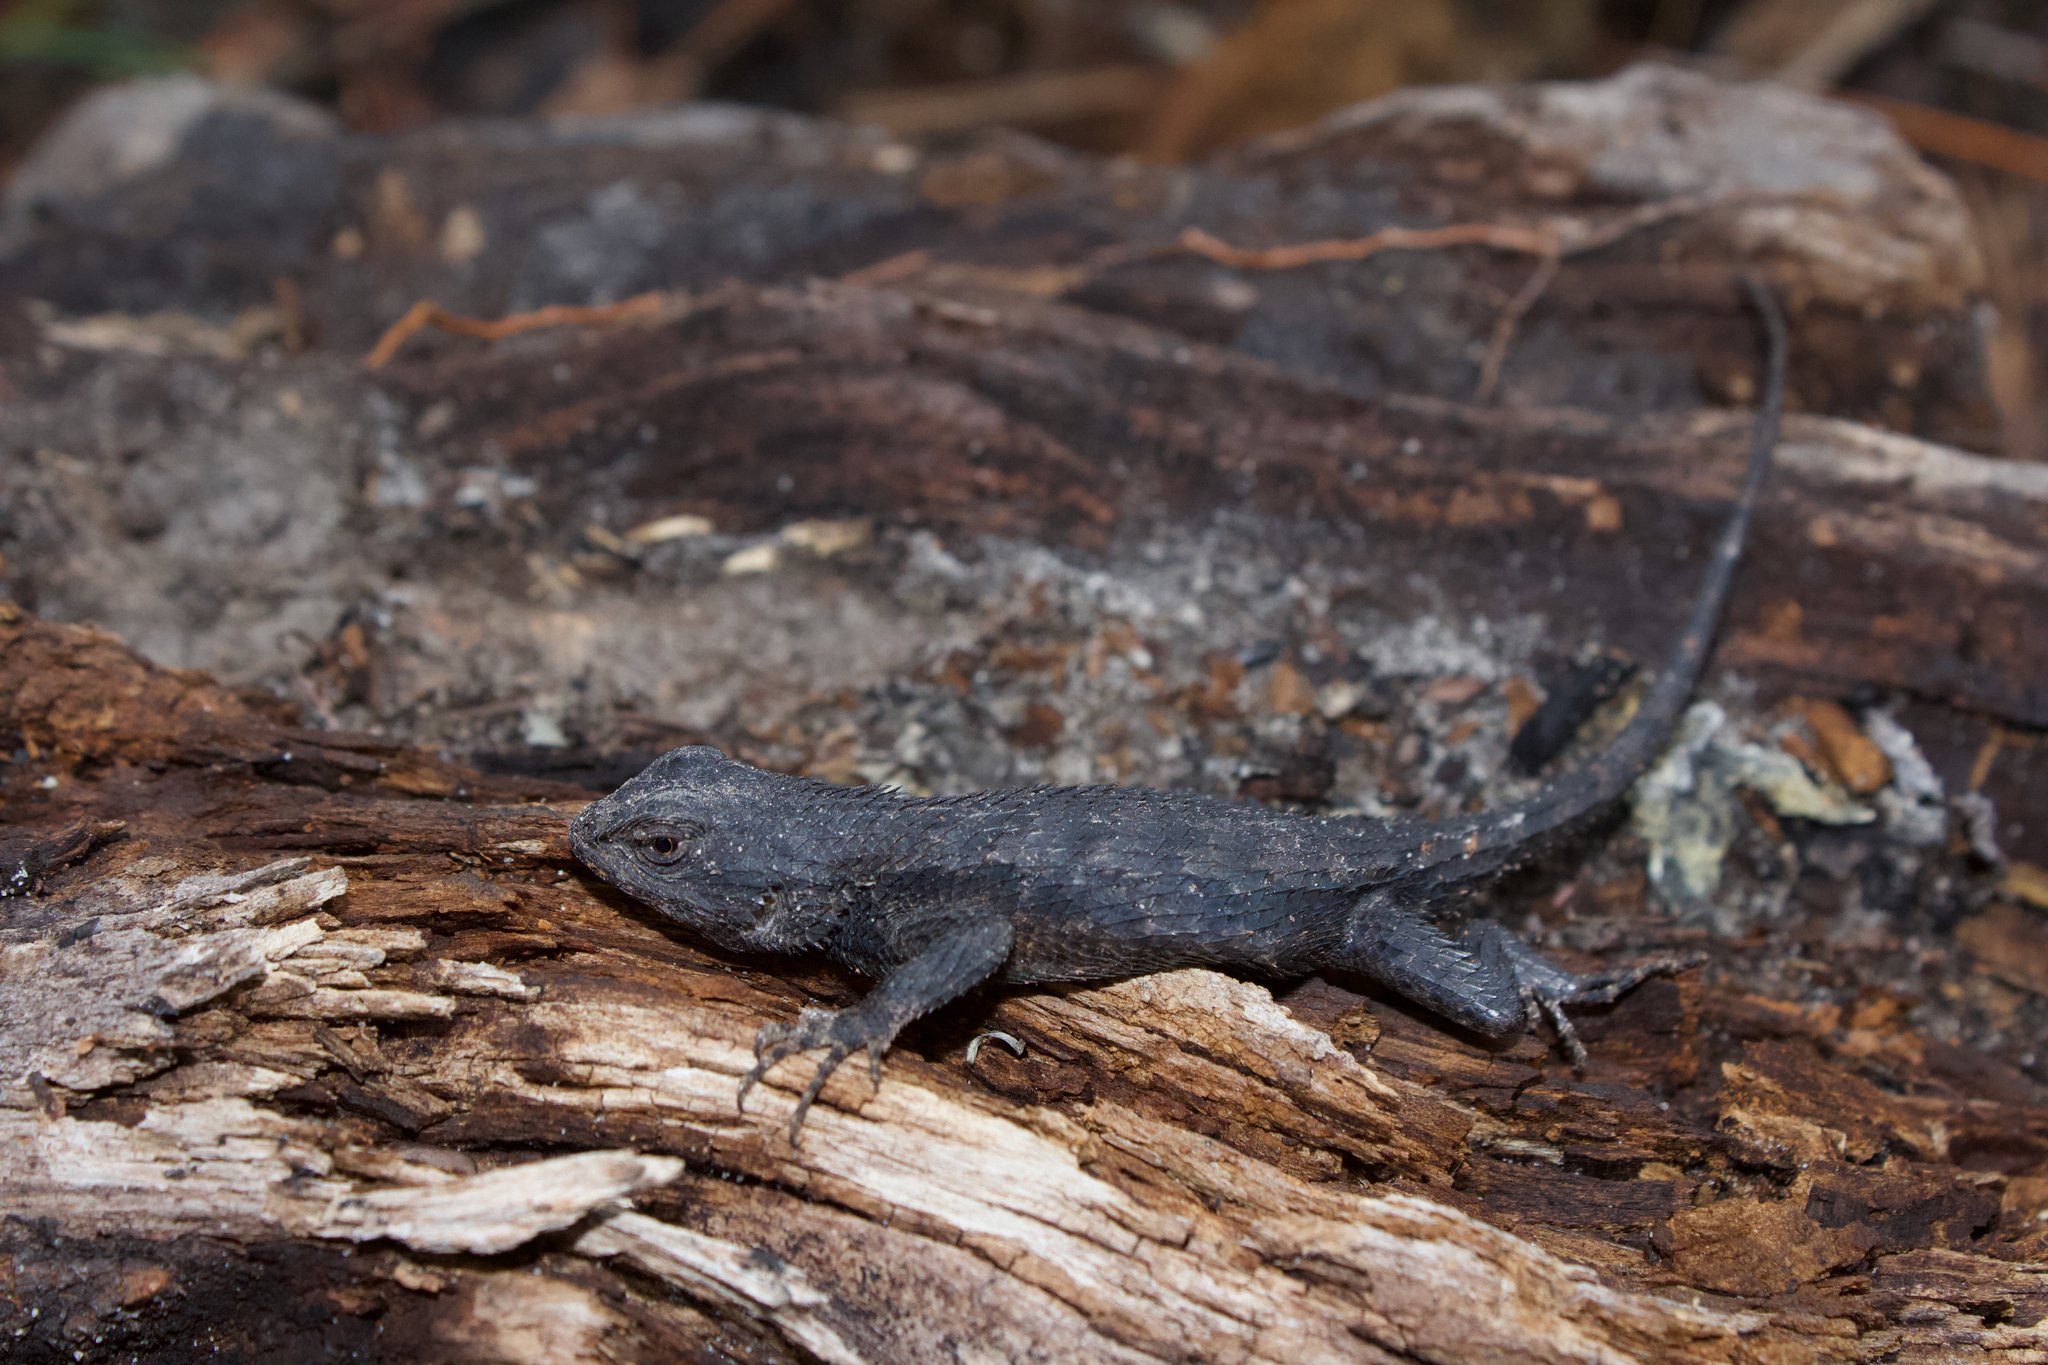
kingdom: Animalia
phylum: Chordata
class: Squamata
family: Phrynosomatidae
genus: Sceloporus
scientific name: Sceloporus consobrinus
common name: Southern prairie lizard
